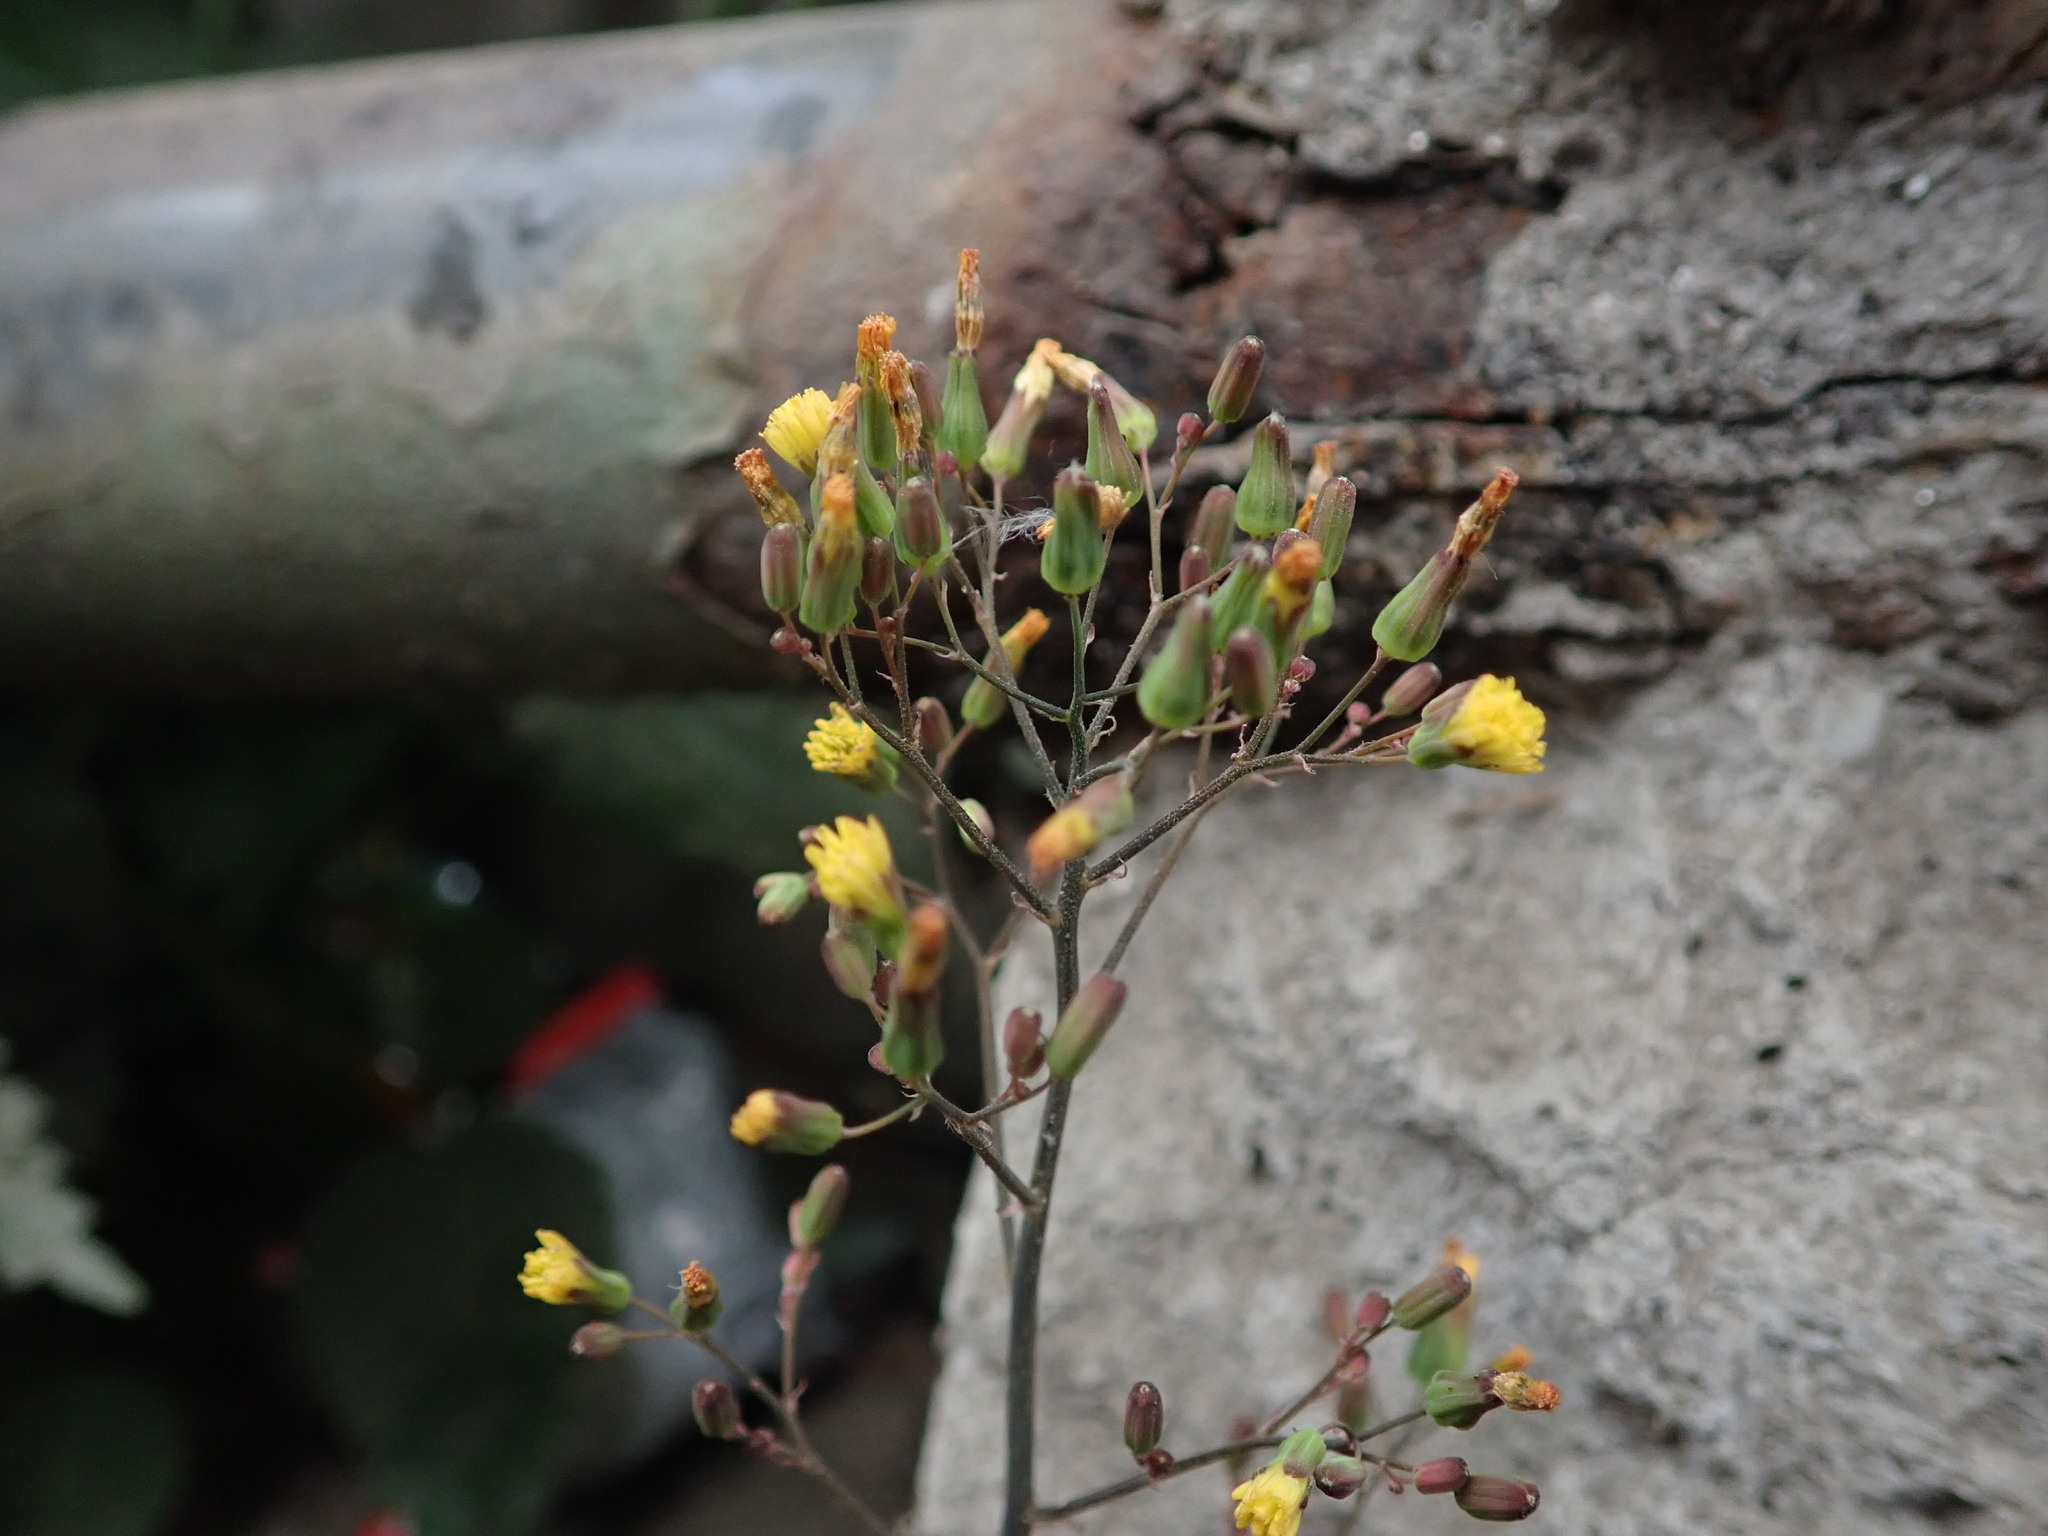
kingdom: Plantae
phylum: Tracheophyta
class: Magnoliopsida
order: Asterales
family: Asteraceae
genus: Youngia
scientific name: Youngia japonica
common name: Oriental false hawksbeard
